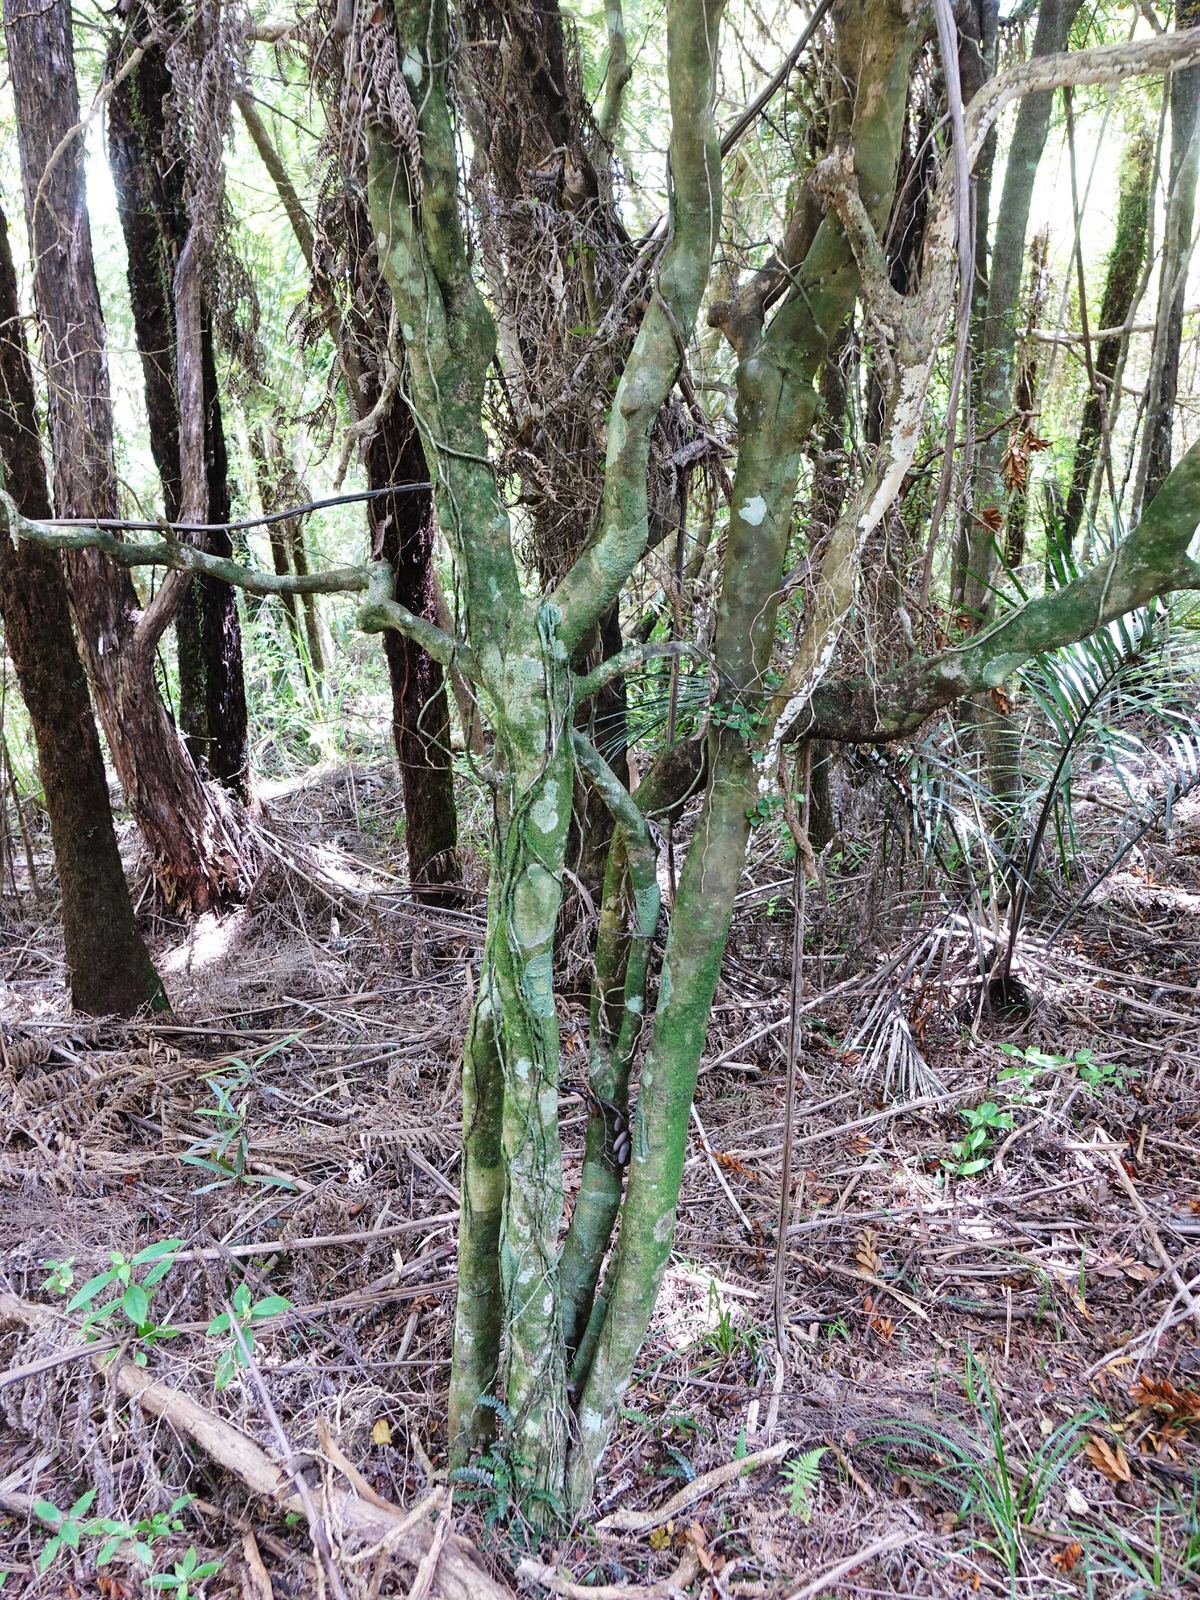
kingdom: Plantae
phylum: Tracheophyta
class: Magnoliopsida
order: Malpighiales
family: Violaceae
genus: Melicytus
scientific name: Melicytus micranthus
